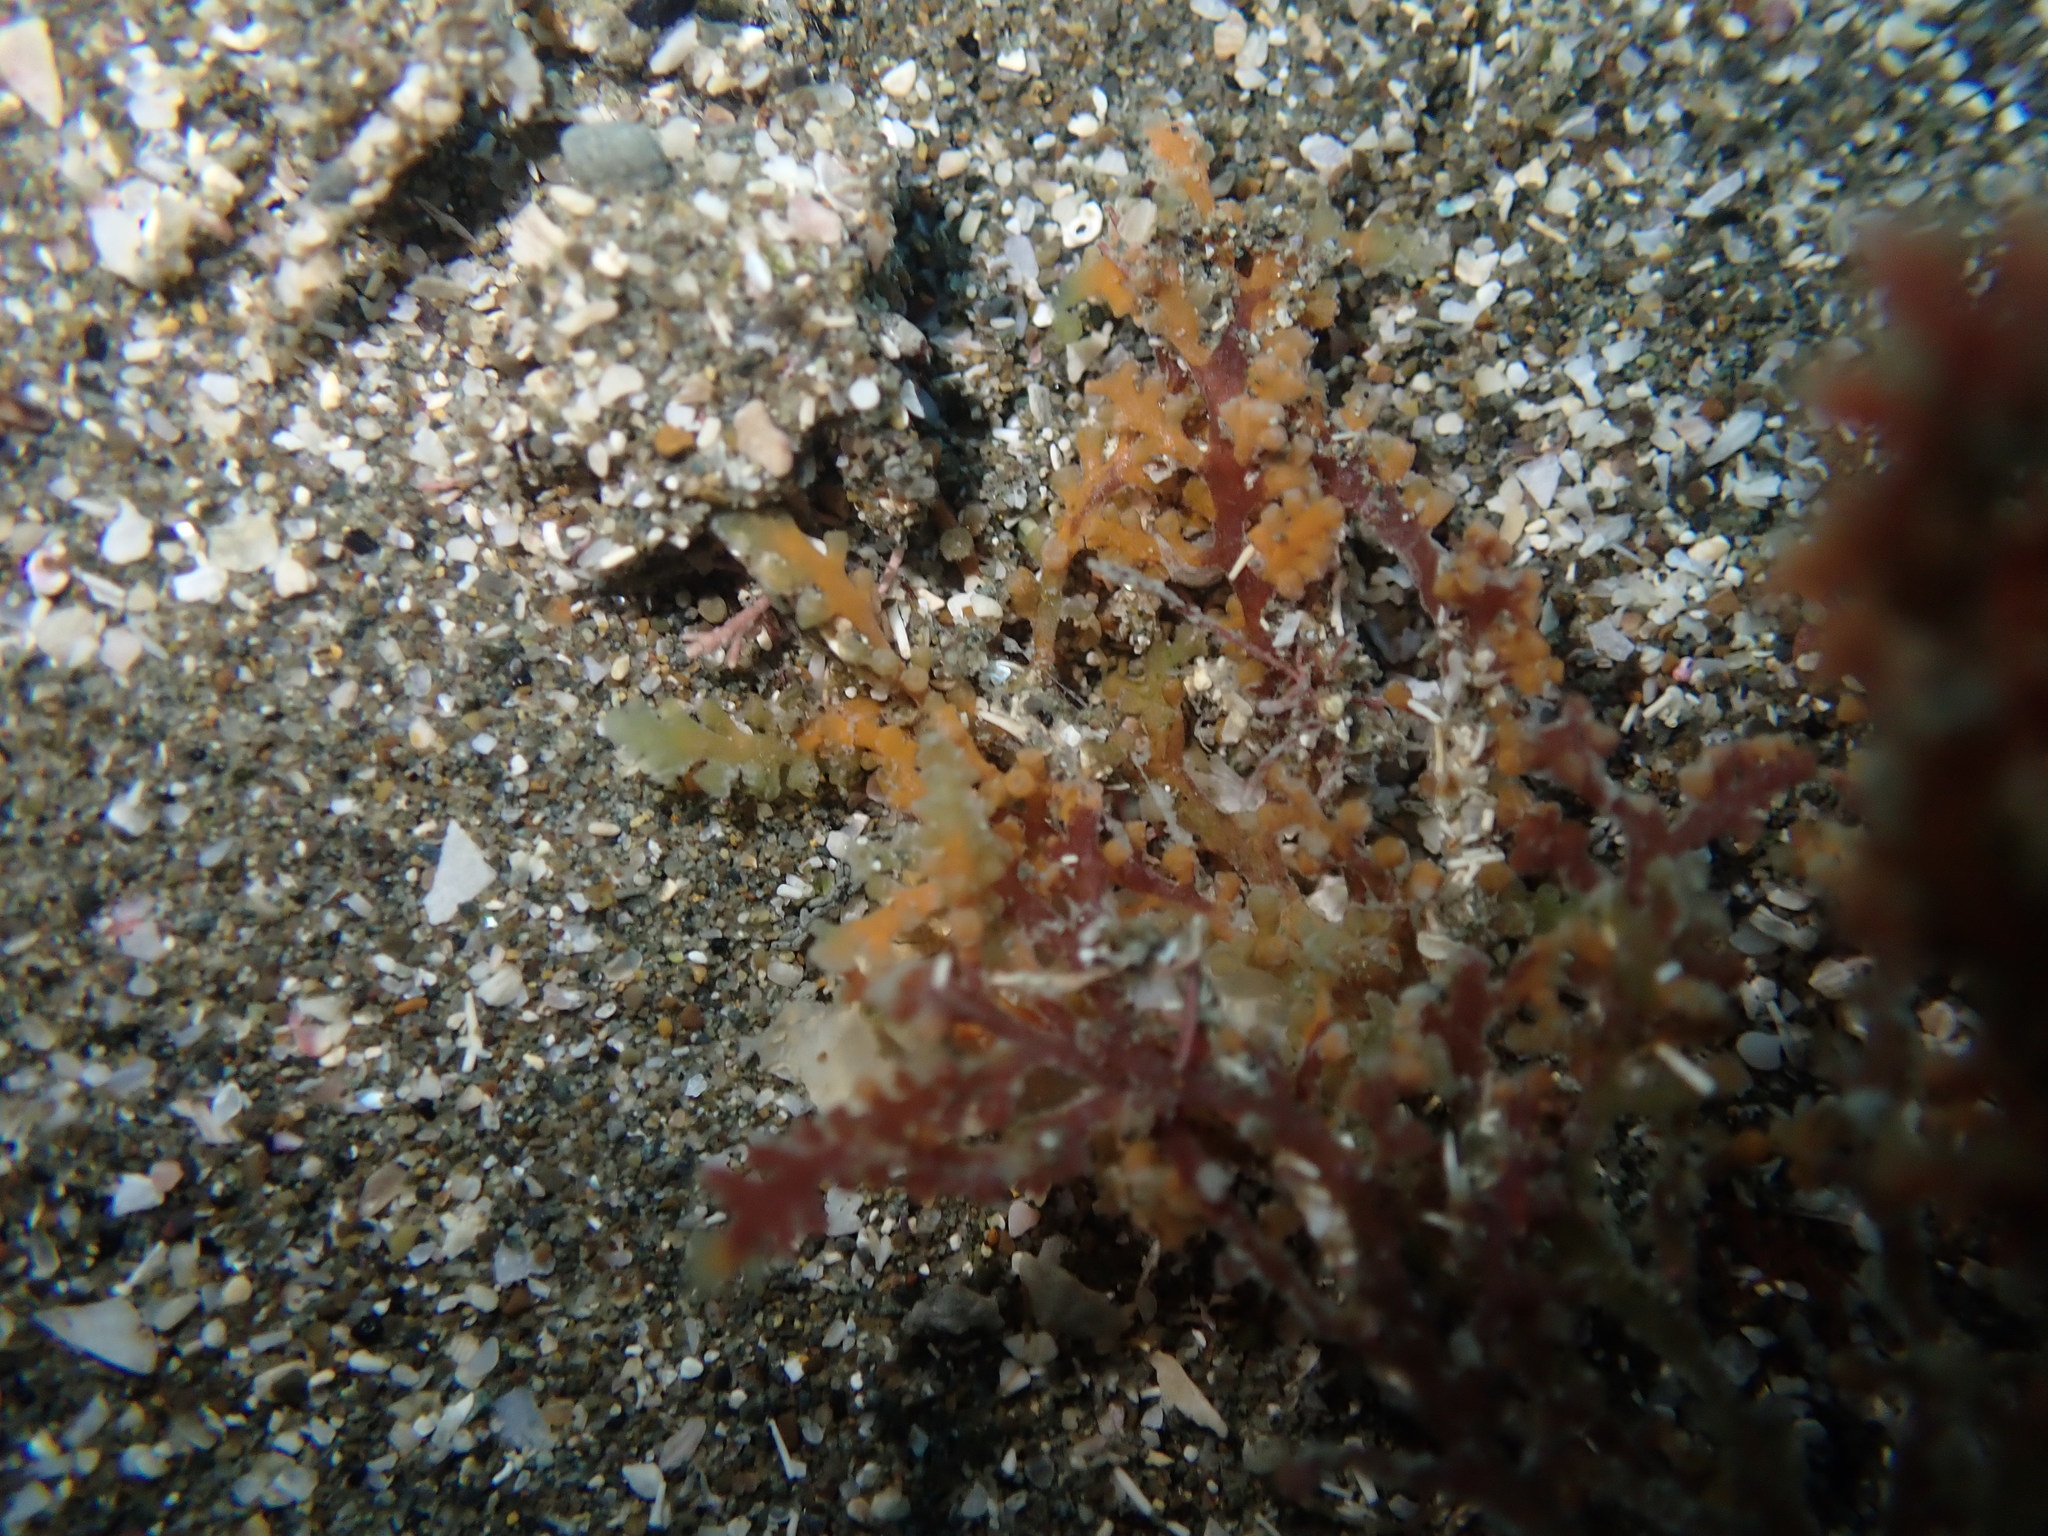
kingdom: Plantae
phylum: Rhodophyta
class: Florideophyceae
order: Ceramiales
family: Rhodomelaceae
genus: Laurencia
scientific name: Laurencia distichophylla
